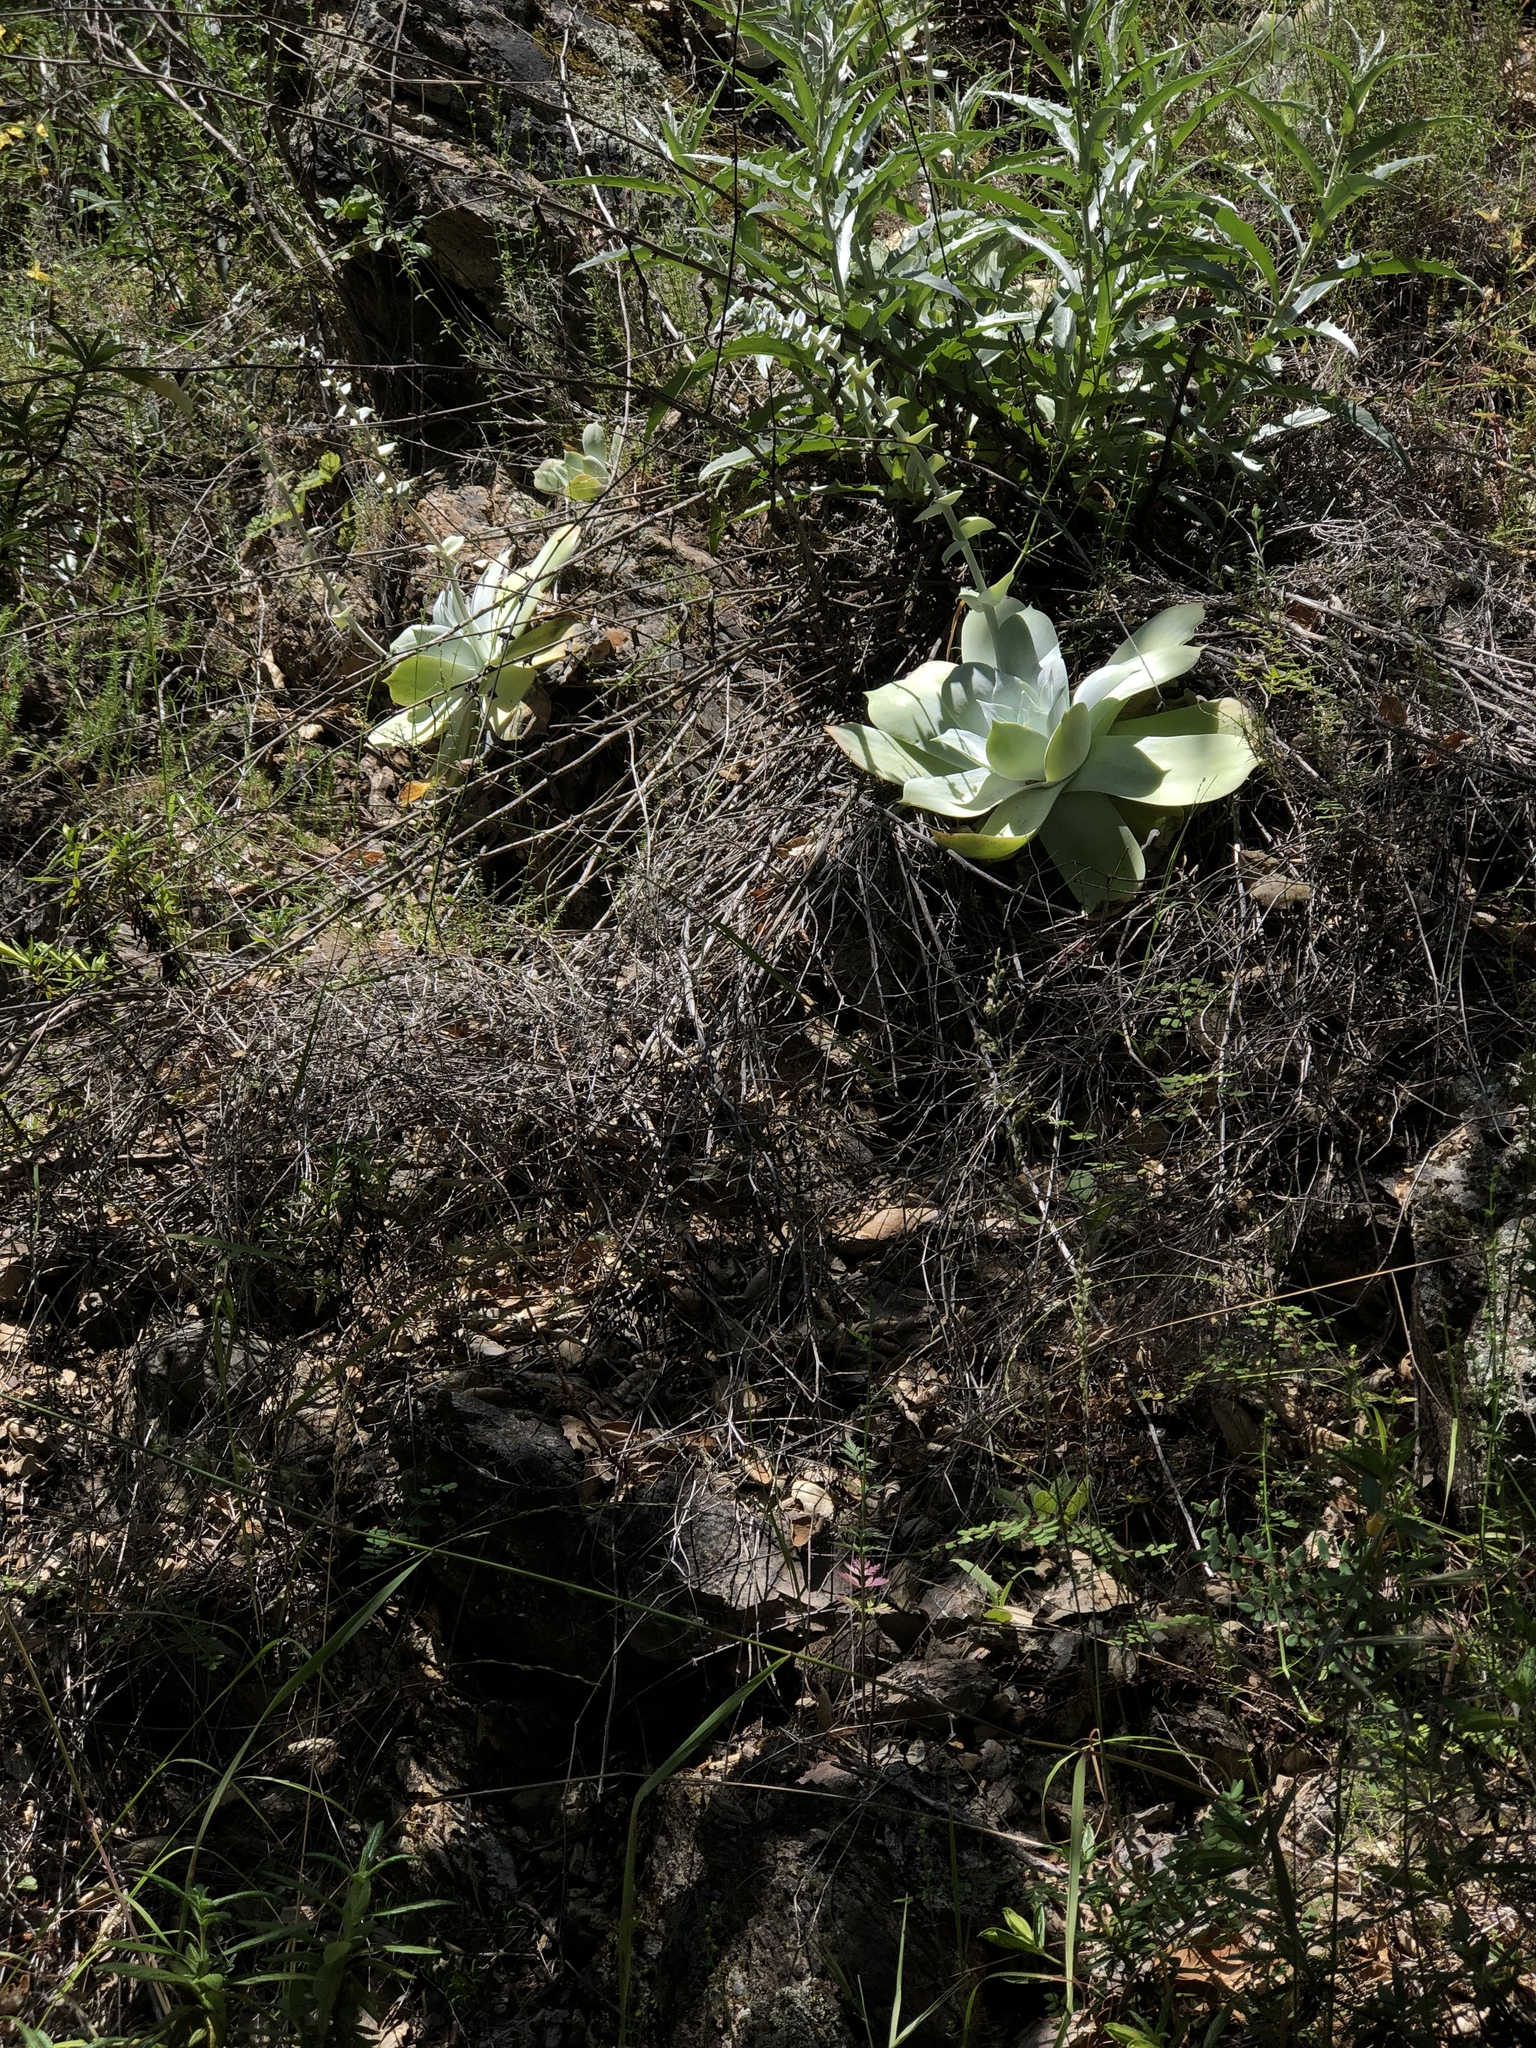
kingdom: Plantae
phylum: Tracheophyta
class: Magnoliopsida
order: Saxifragales
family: Crassulaceae
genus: Dudleya
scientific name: Dudleya pulverulenta
